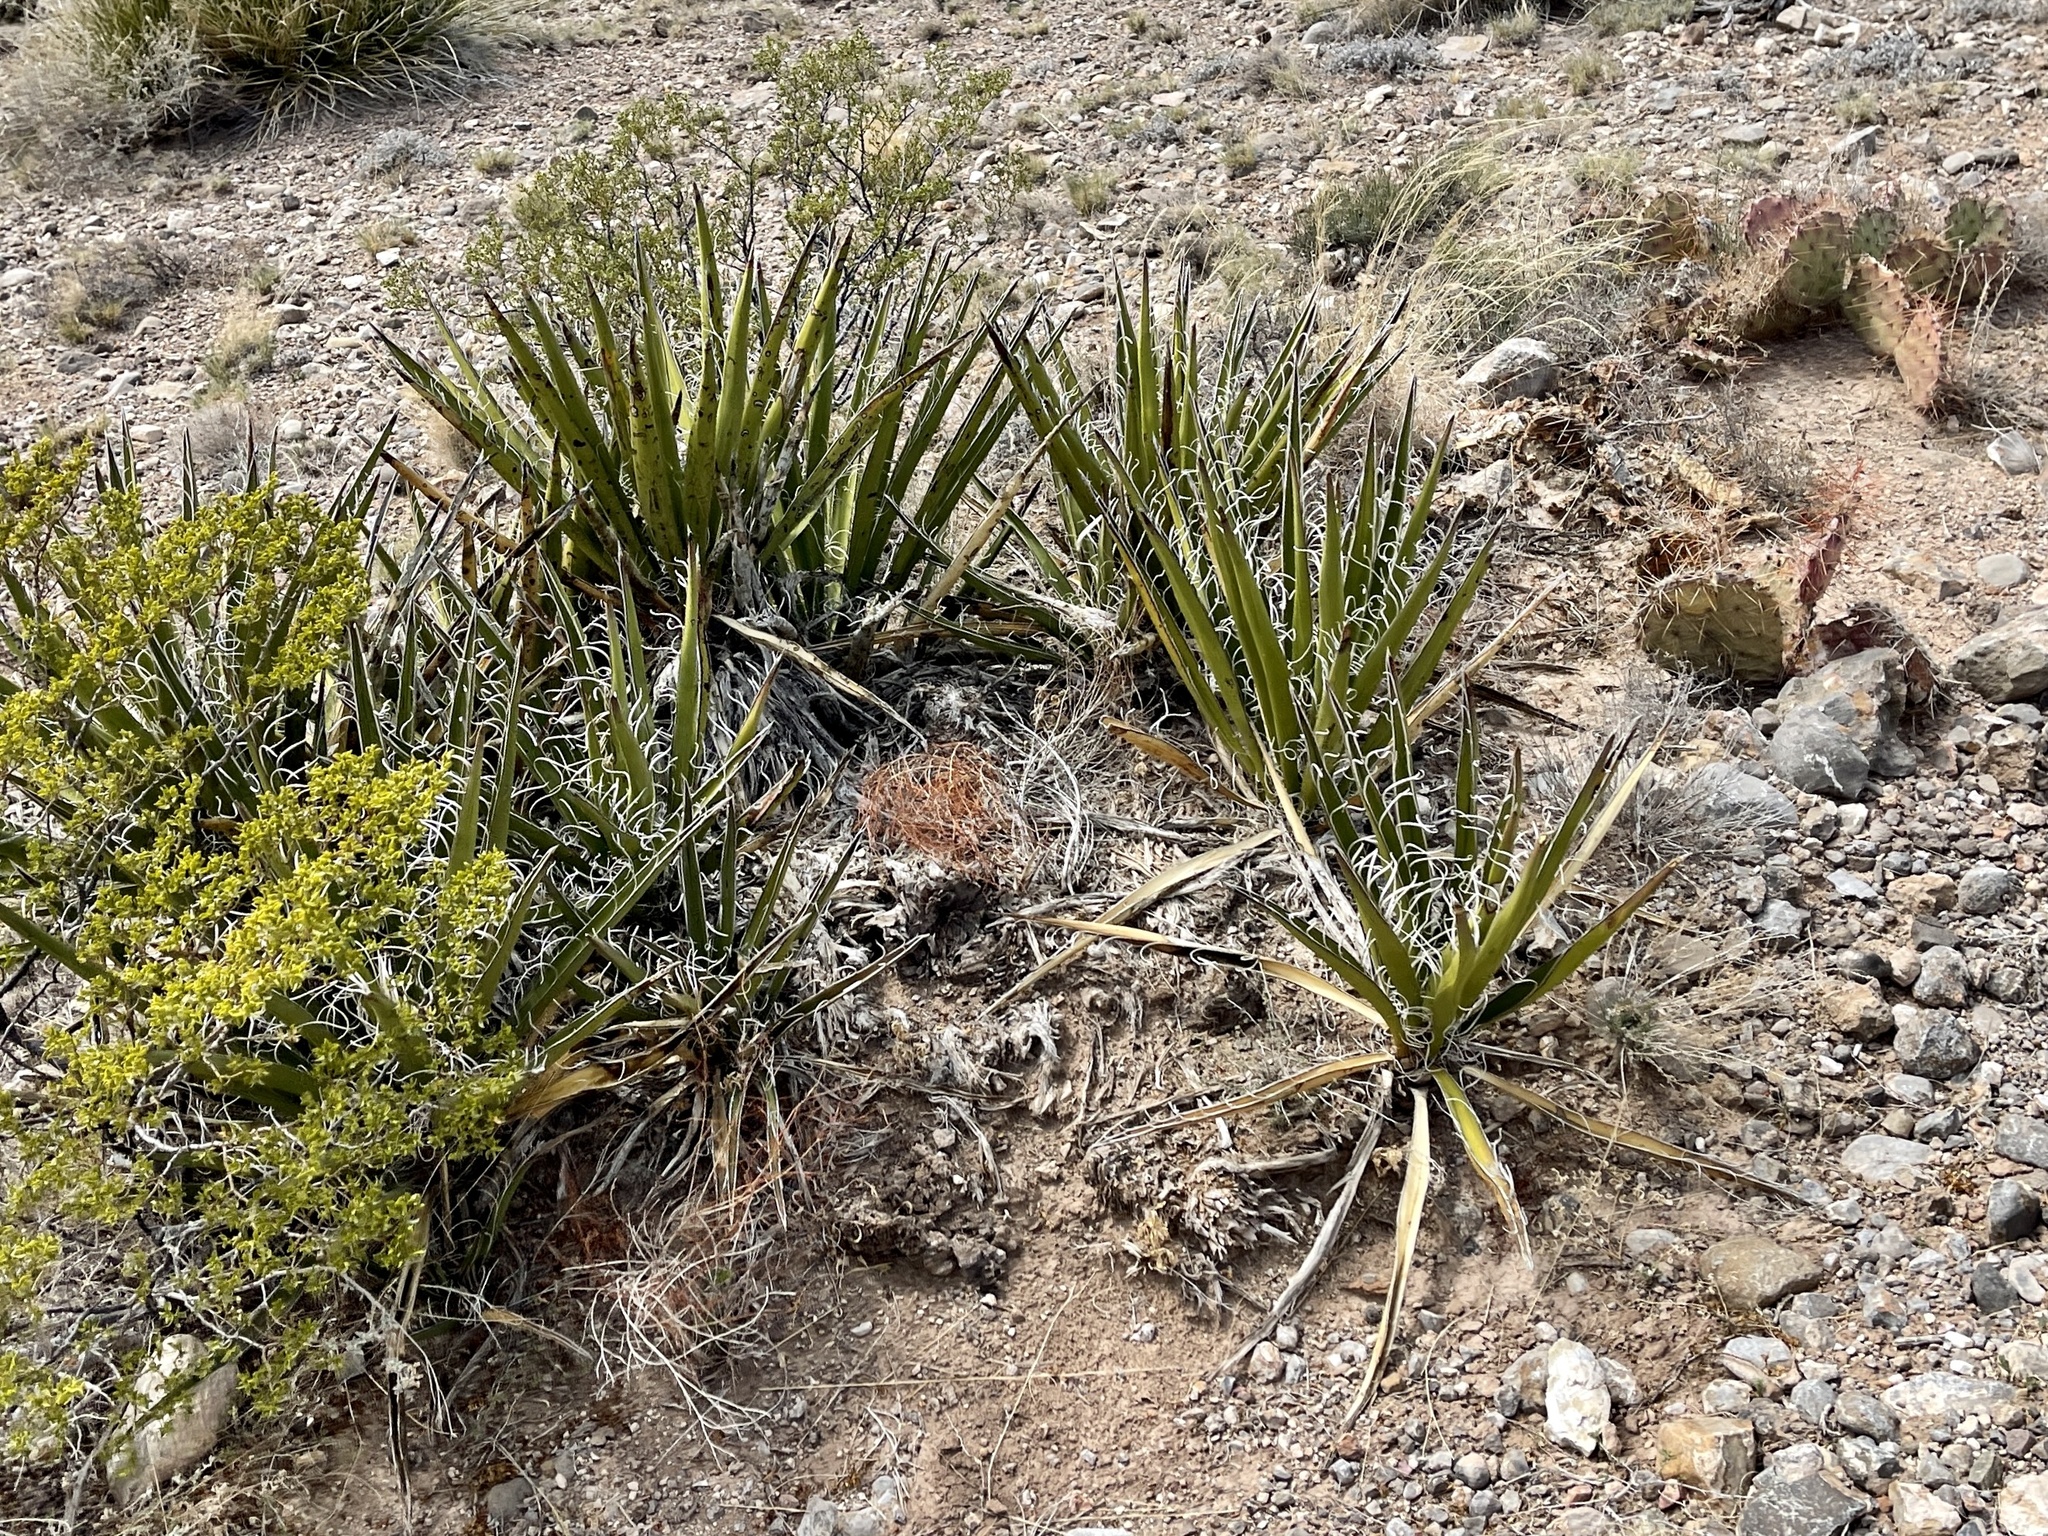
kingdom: Plantae
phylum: Tracheophyta
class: Liliopsida
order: Asparagales
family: Asparagaceae
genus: Yucca
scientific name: Yucca baccata
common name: Banana yucca
